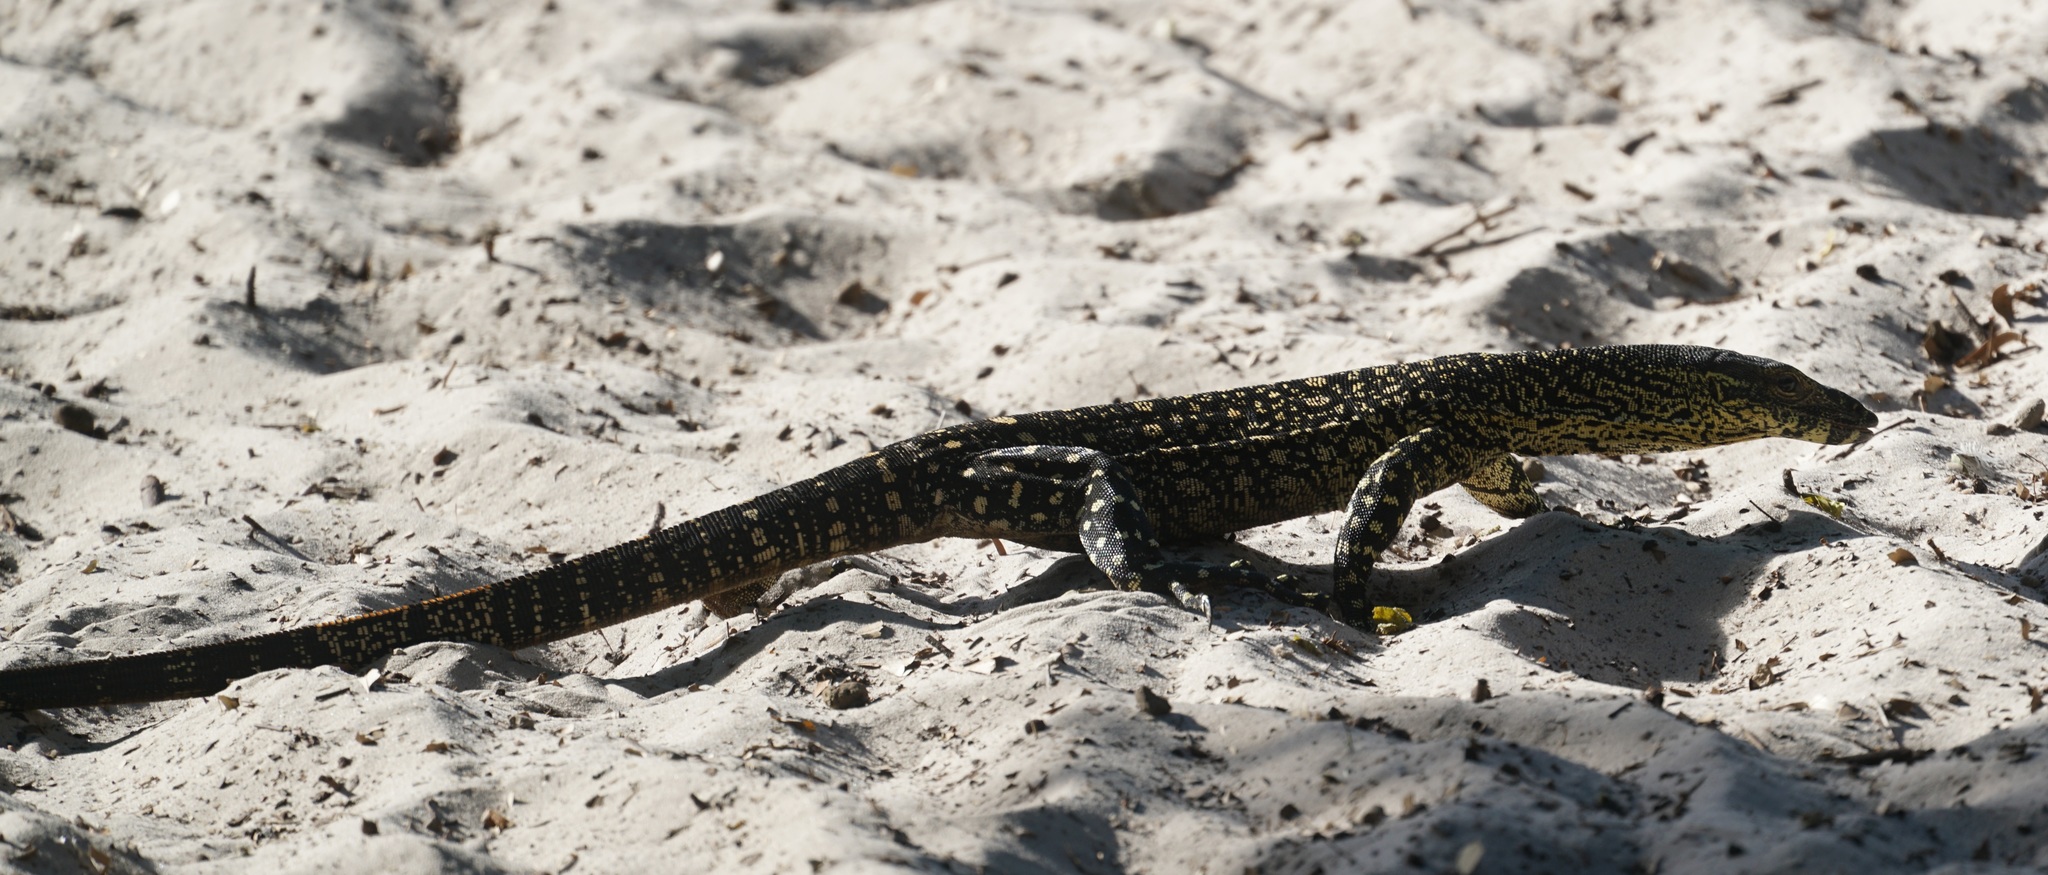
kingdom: Animalia
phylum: Chordata
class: Squamata
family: Varanidae
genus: Varanus
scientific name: Varanus varius
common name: Lace monitor
